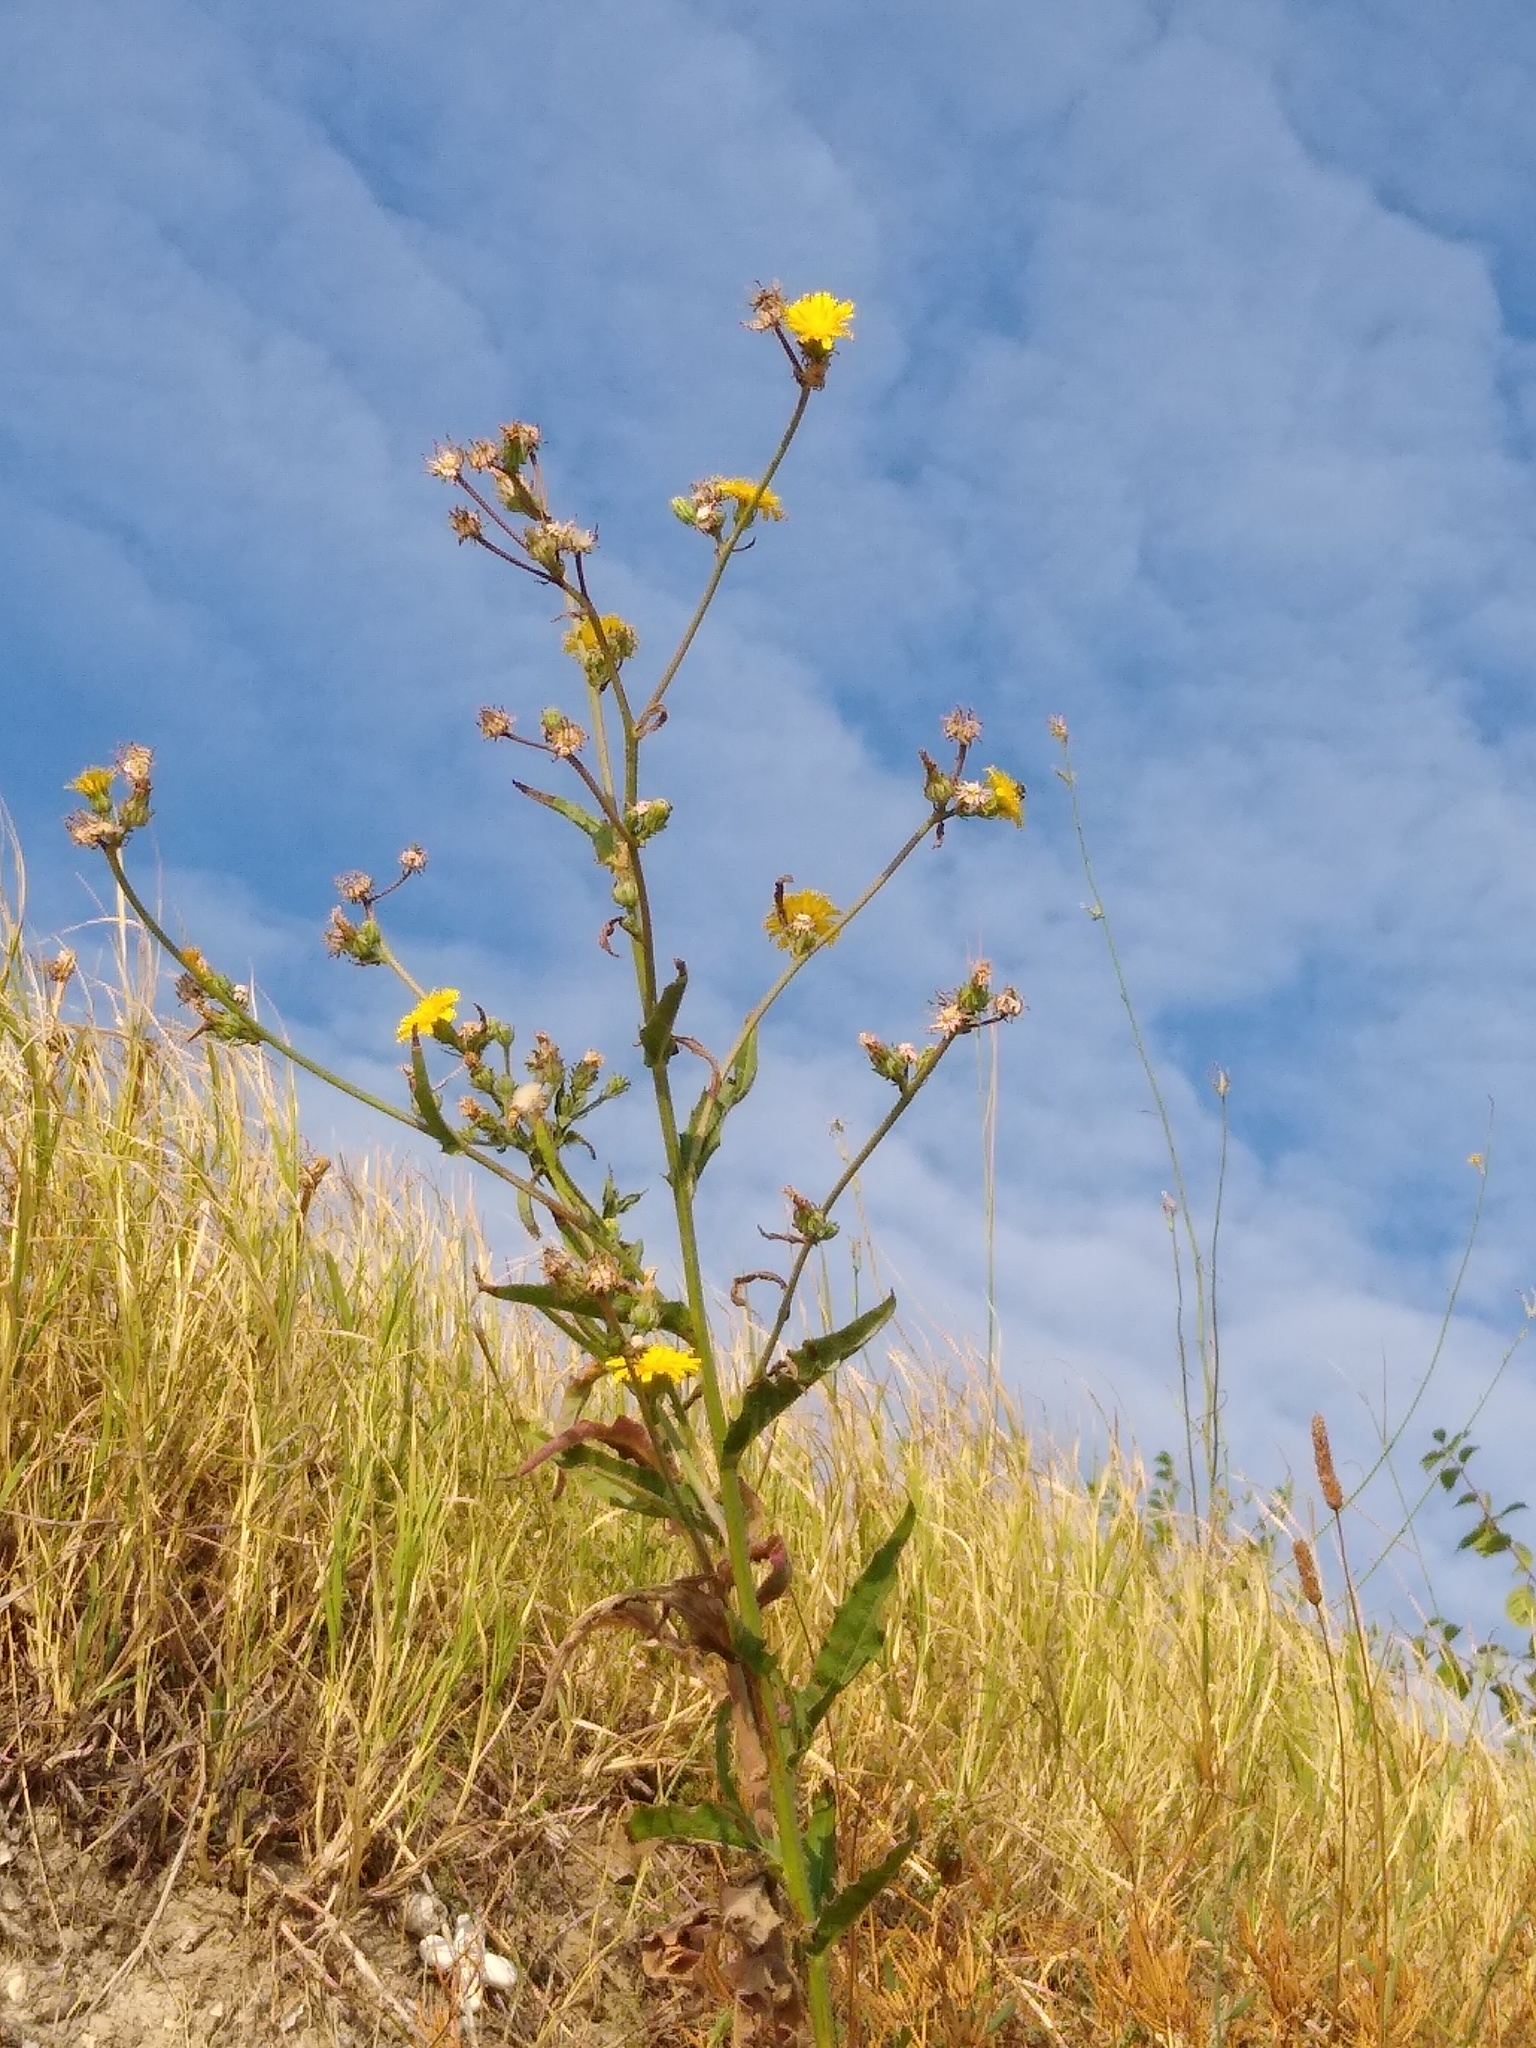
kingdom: Plantae
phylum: Tracheophyta
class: Magnoliopsida
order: Asterales
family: Asteraceae
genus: Picris
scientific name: Picris hieracioides
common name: Hawkweed oxtongue
